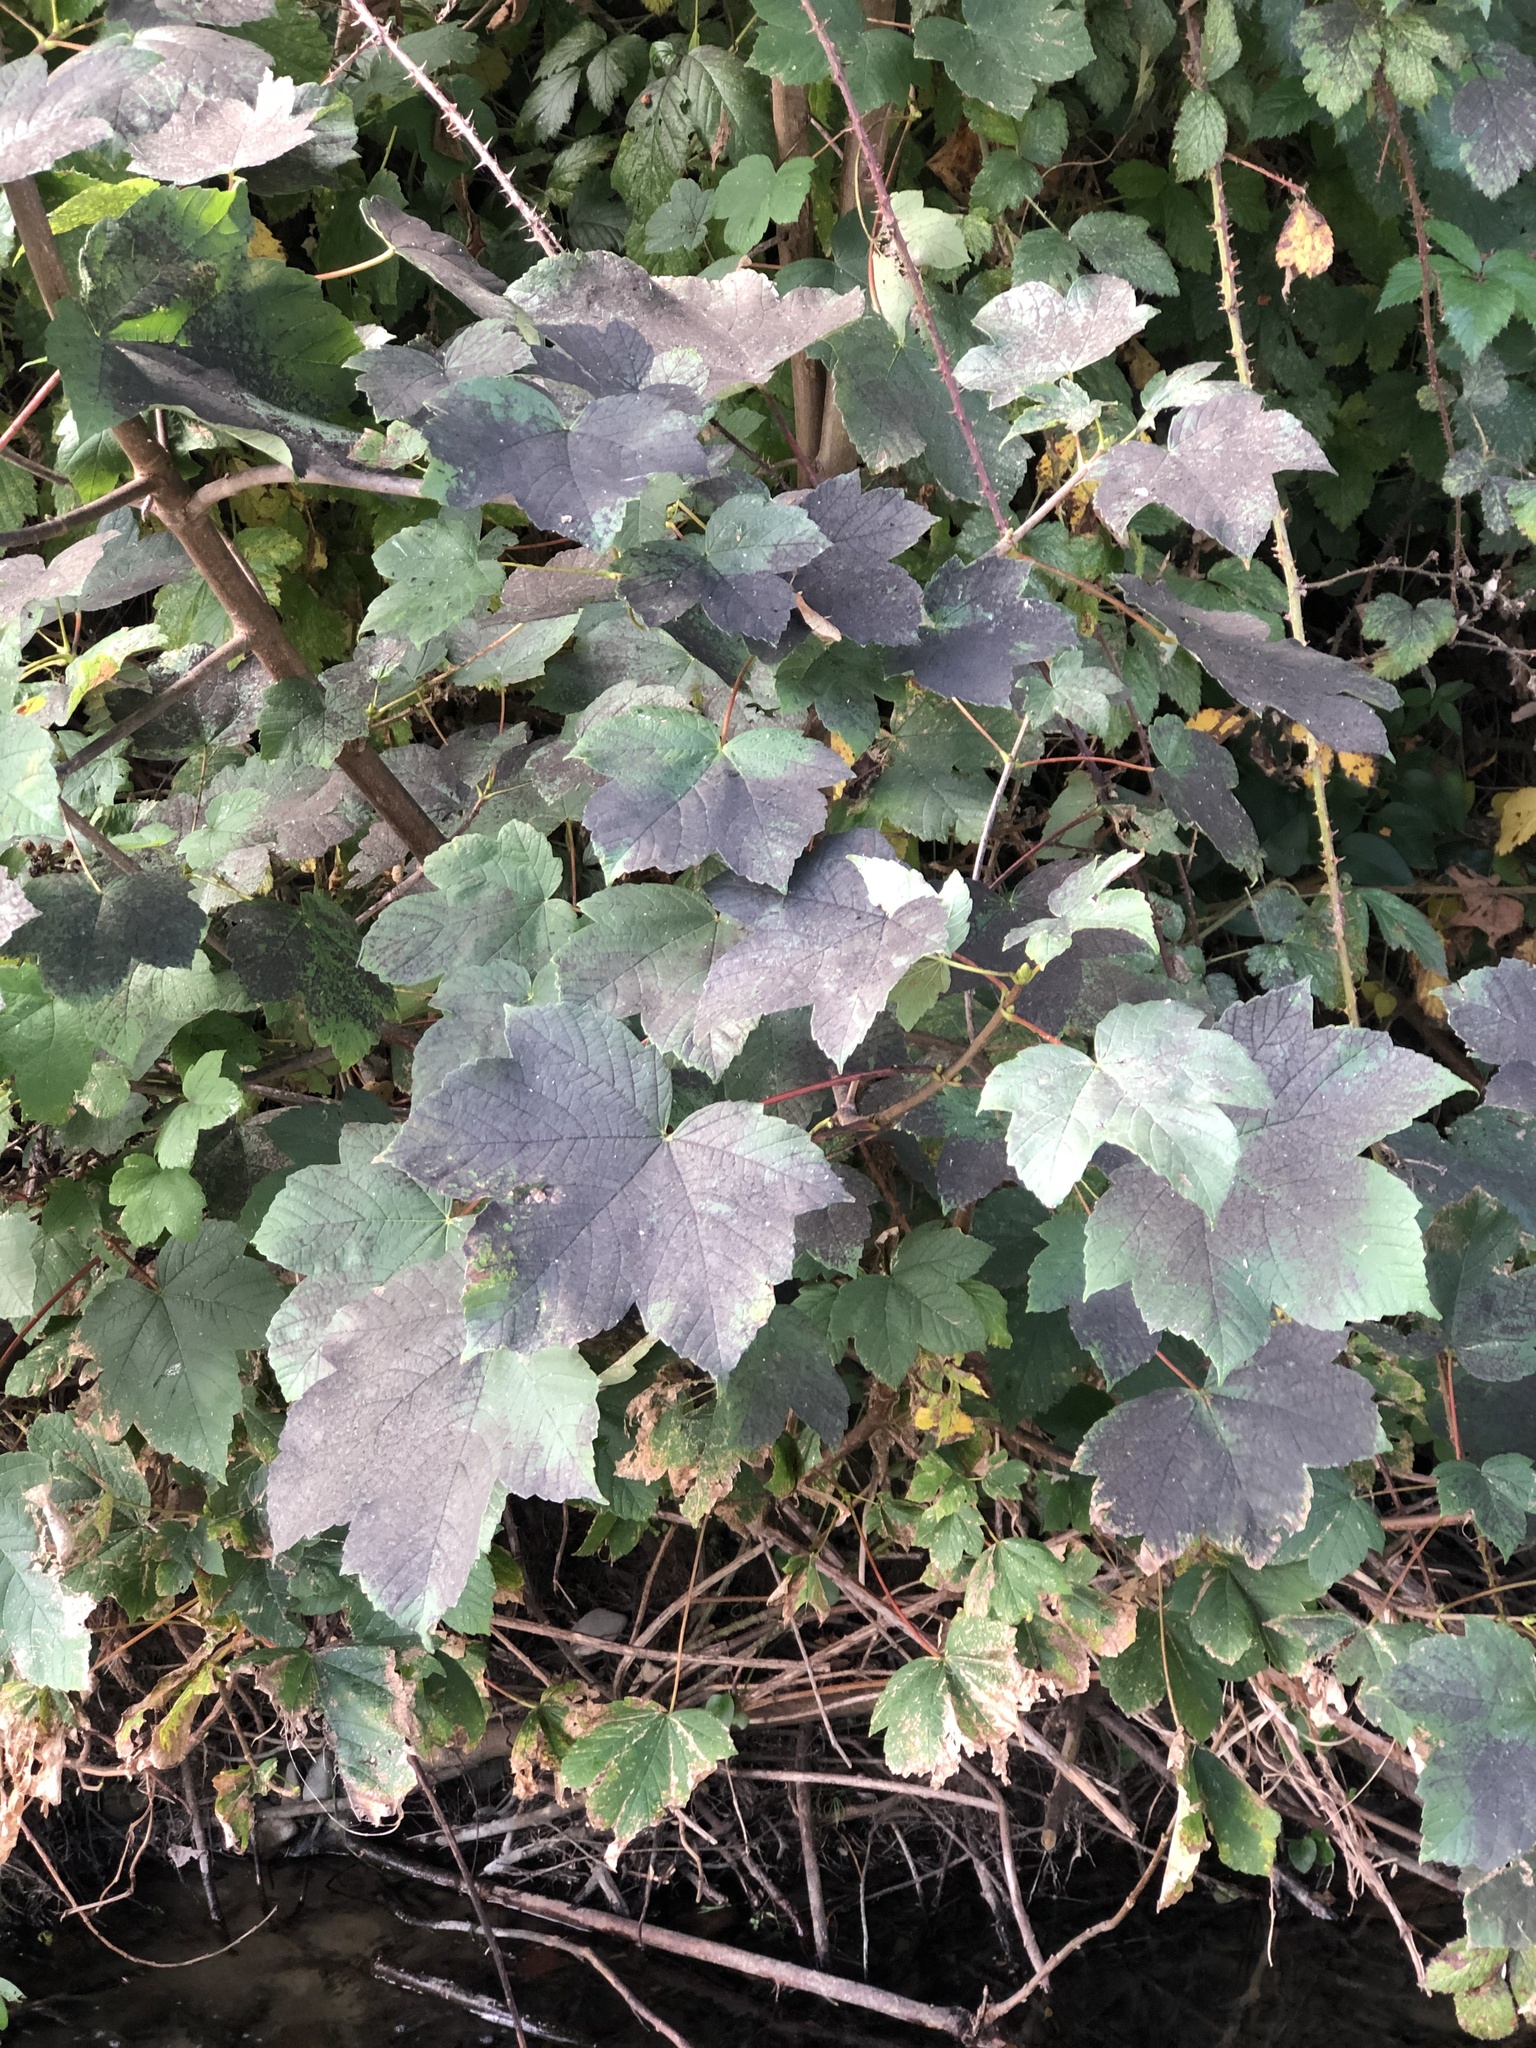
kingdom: Plantae
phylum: Tracheophyta
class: Magnoliopsida
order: Sapindales
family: Sapindaceae
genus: Acer
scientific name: Acer pseudoplatanus
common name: Sycamore
